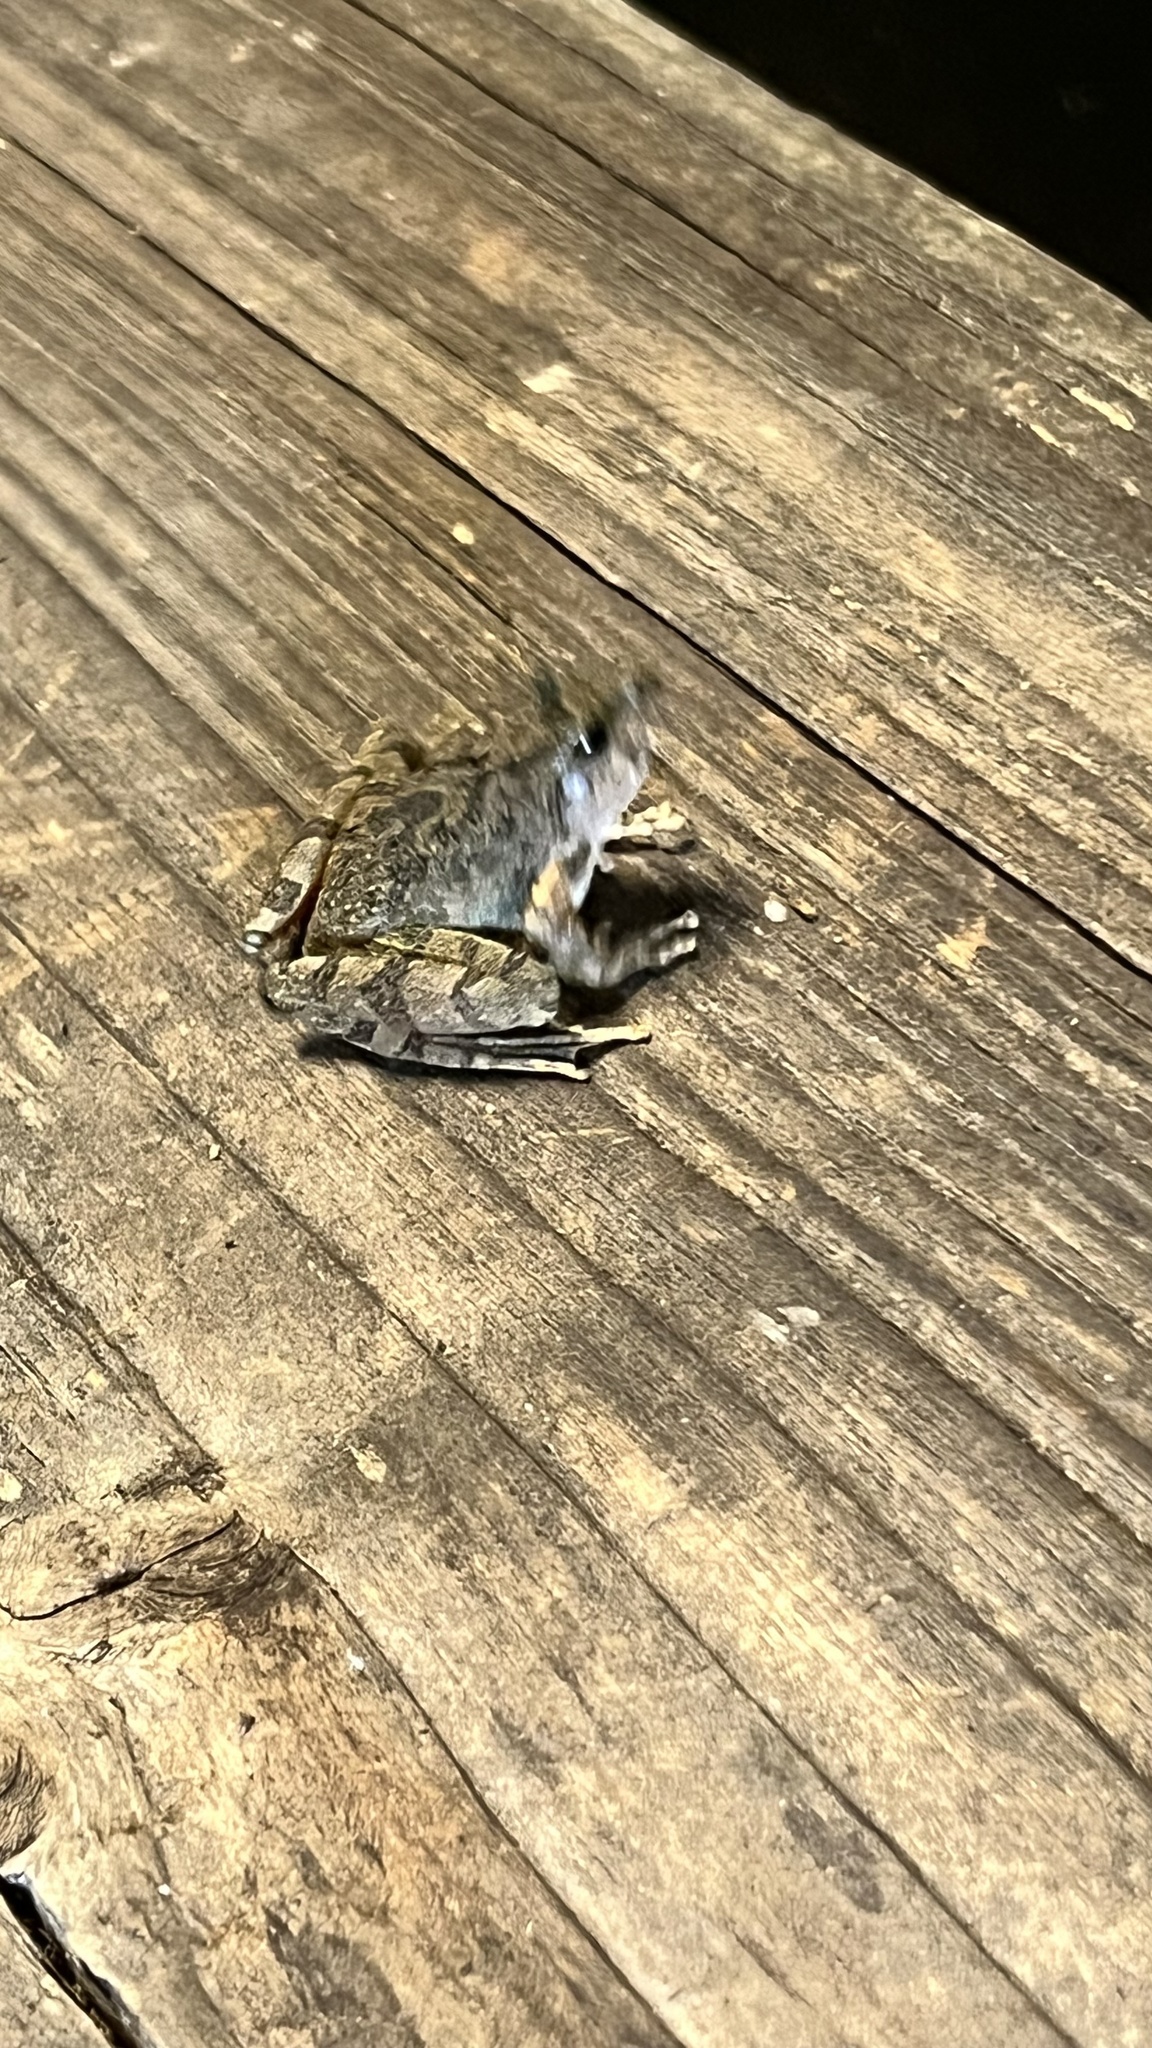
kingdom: Animalia
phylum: Chordata
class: Amphibia
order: Anura
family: Rhacophoridae
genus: Buergeria
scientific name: Buergeria choui
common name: Yaeyama kajika frog
